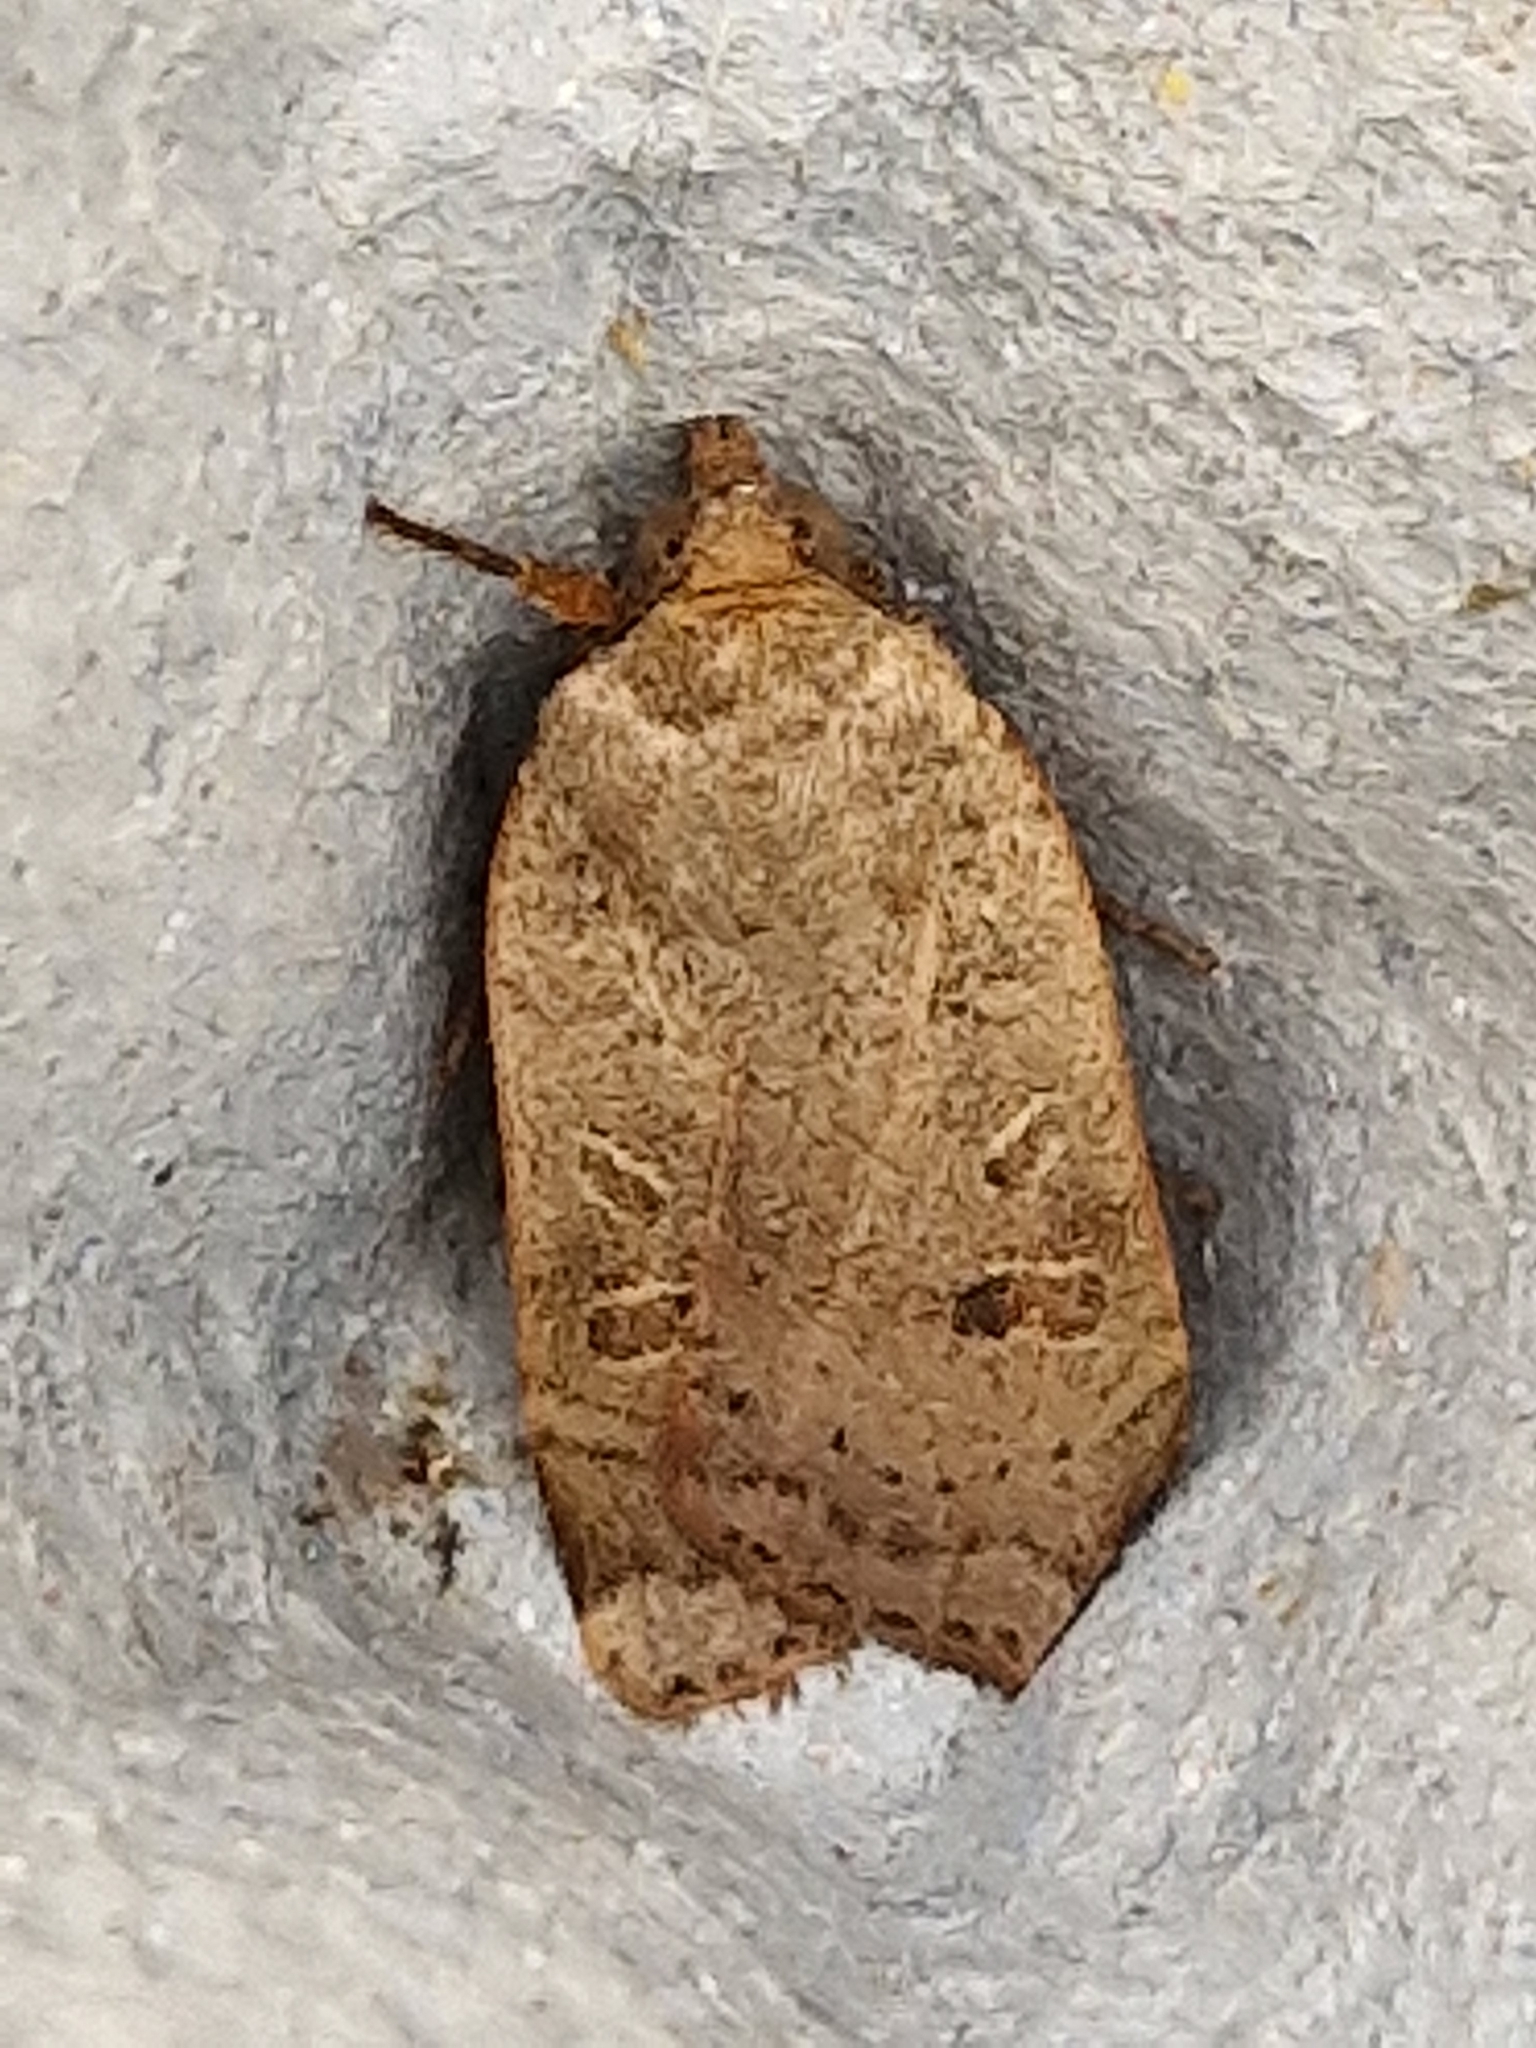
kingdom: Animalia
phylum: Arthropoda
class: Insecta
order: Lepidoptera
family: Noctuidae
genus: Noctua
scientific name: Noctua comes
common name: Lesser yellow underwing
